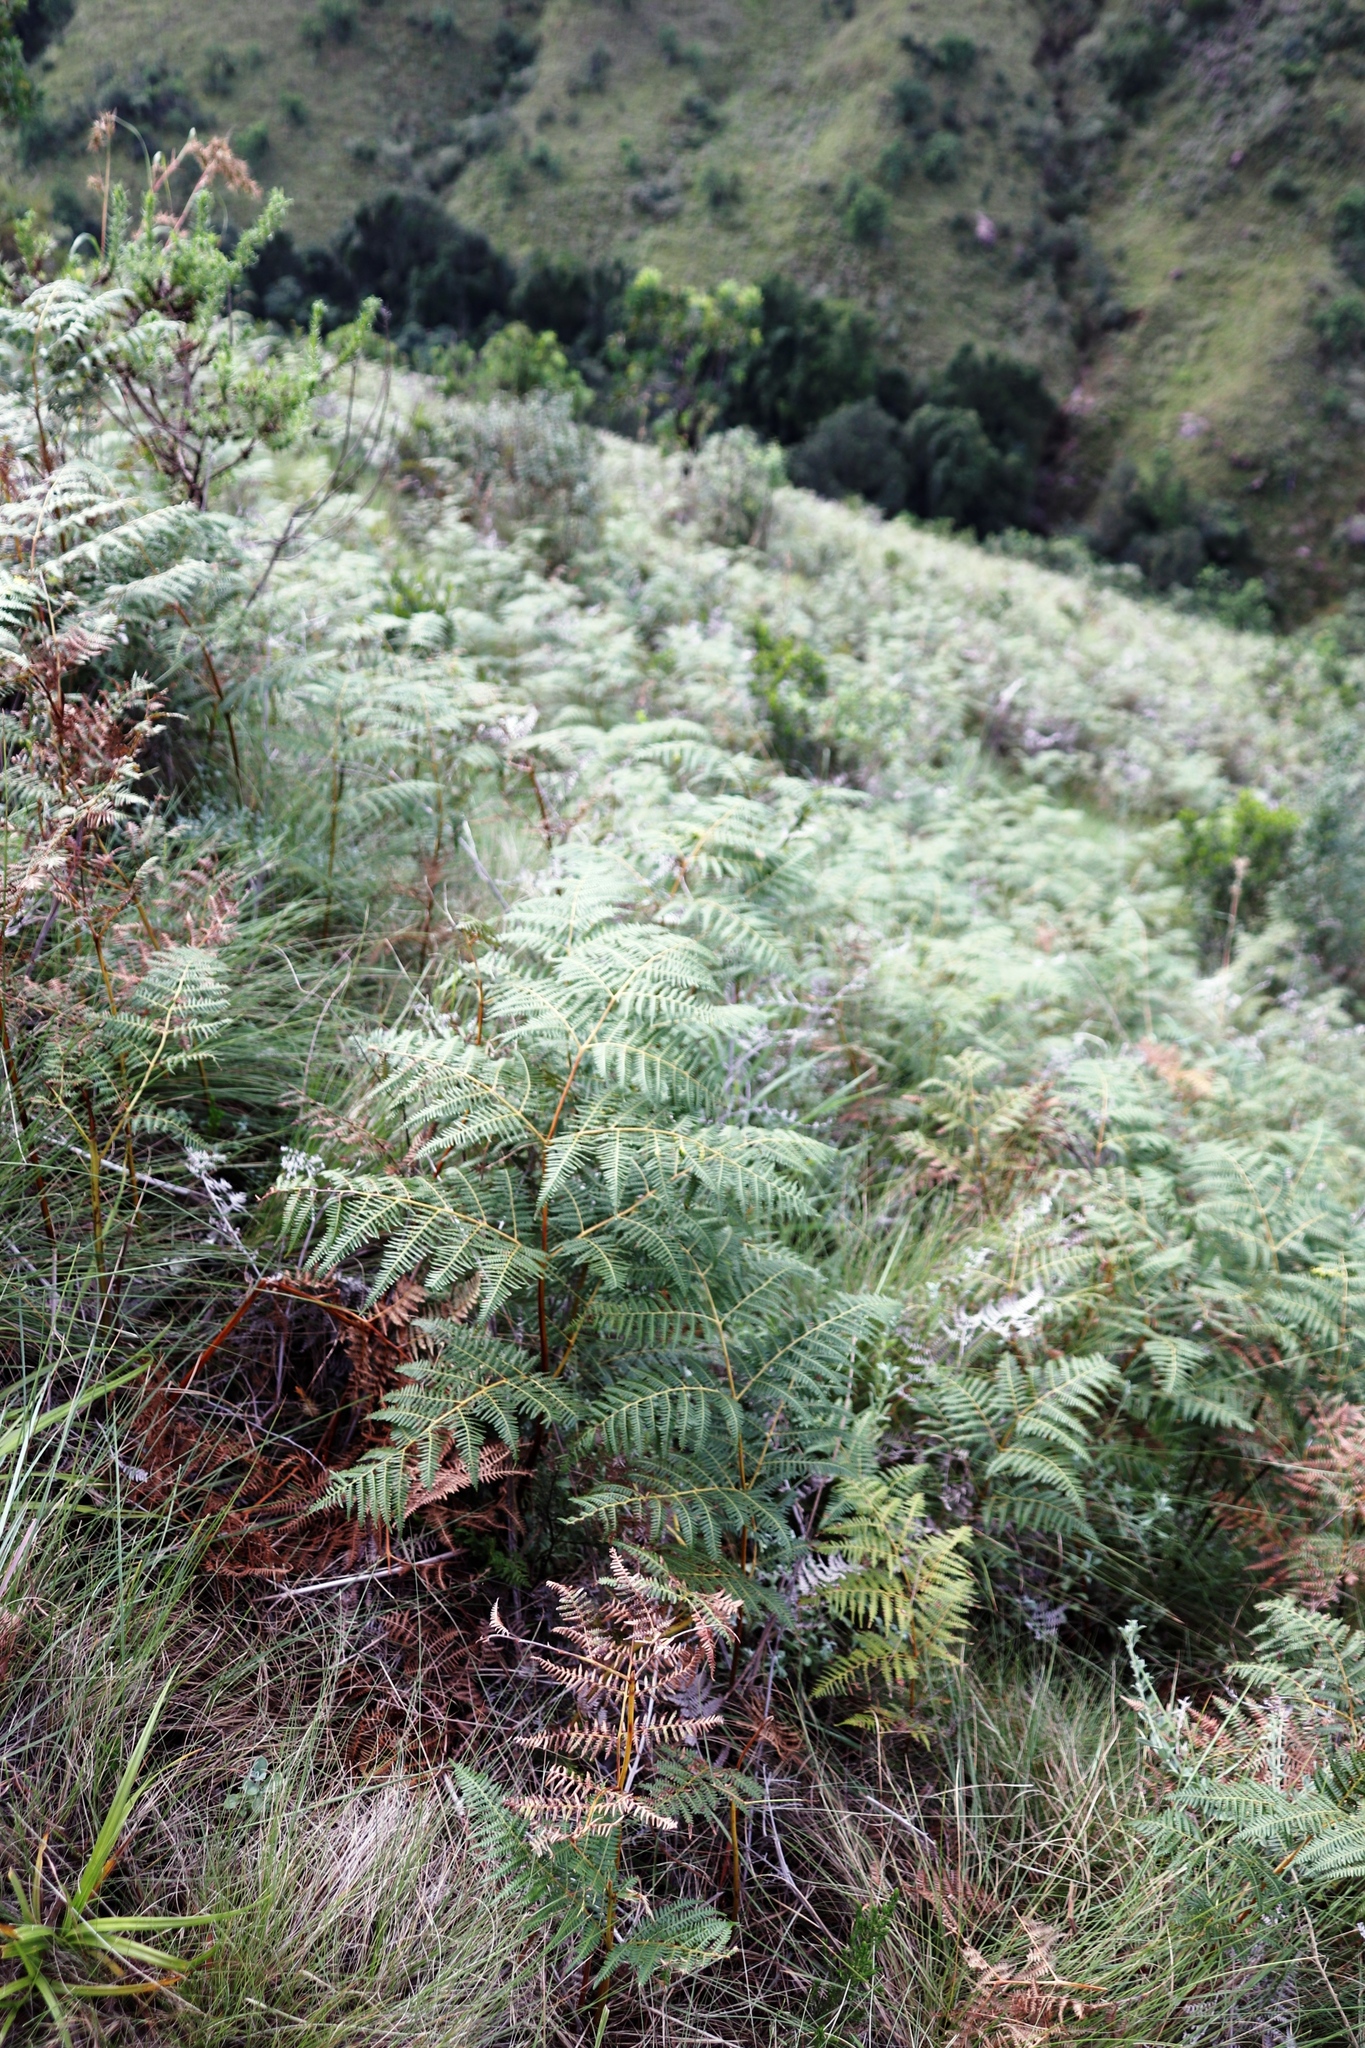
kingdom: Plantae
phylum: Tracheophyta
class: Polypodiopsida
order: Polypodiales
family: Dennstaedtiaceae
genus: Pteridium
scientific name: Pteridium aquilinum
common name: Bracken
